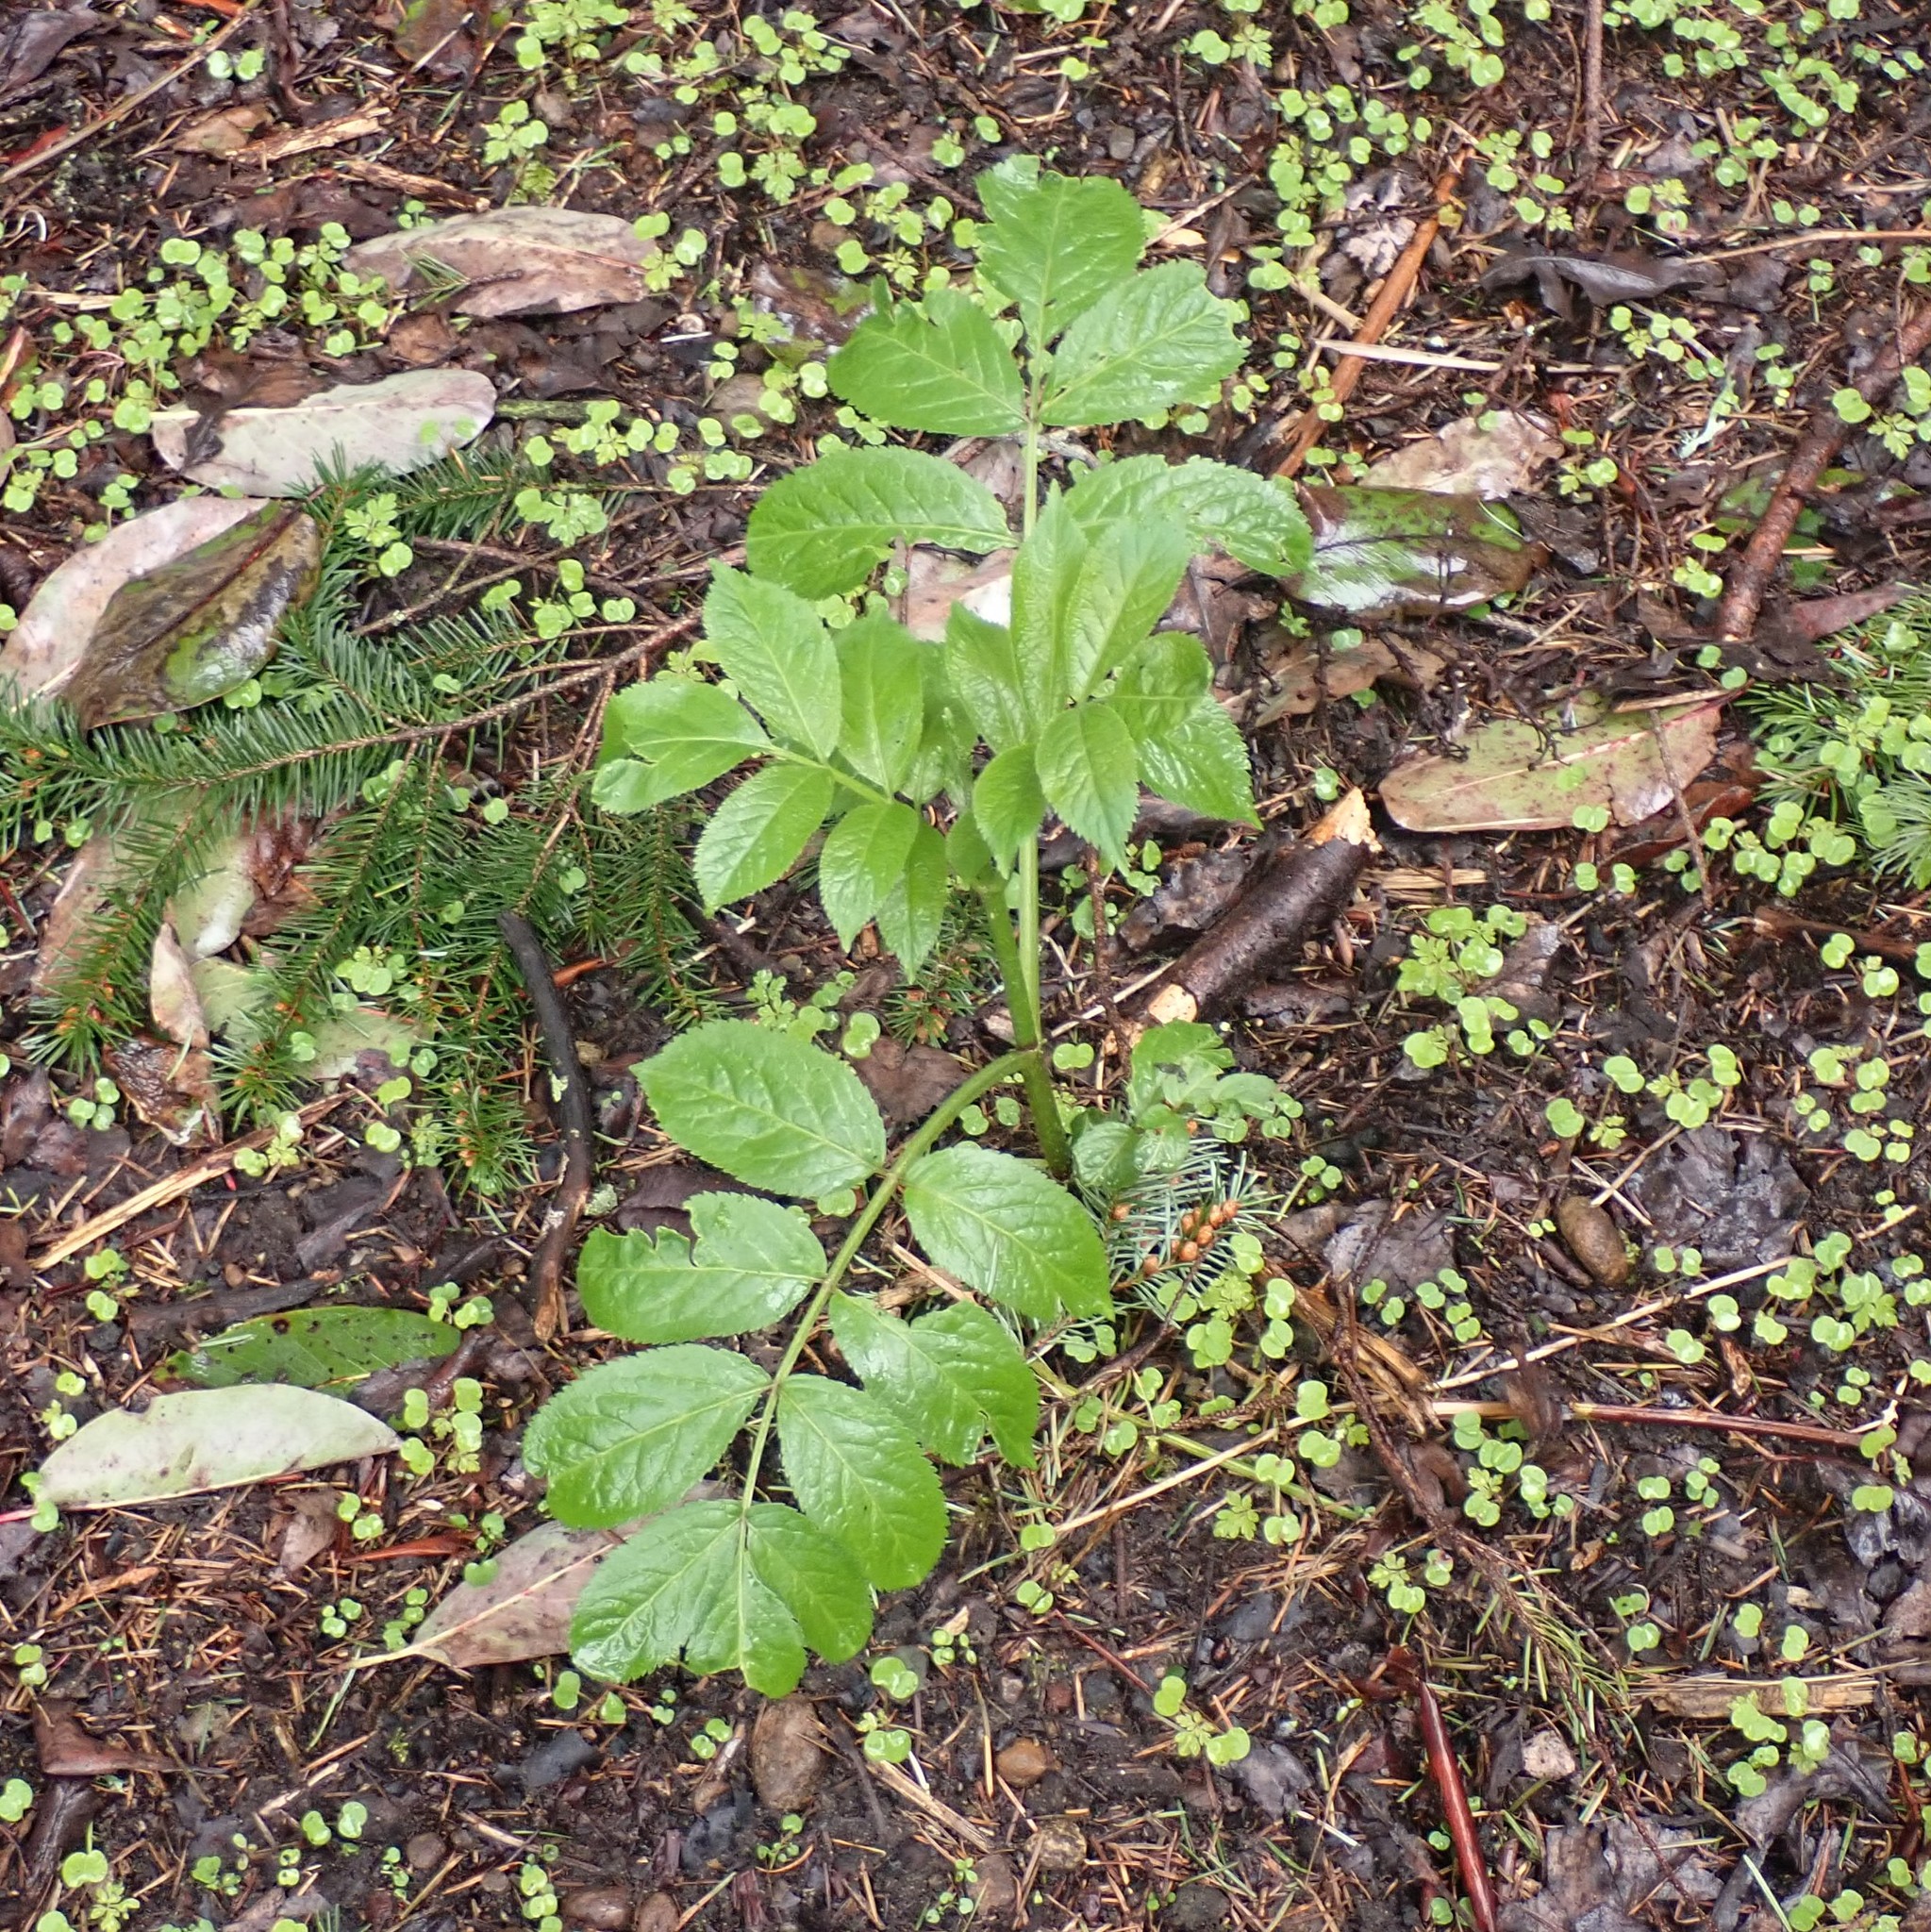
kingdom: Plantae
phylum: Tracheophyta
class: Magnoliopsida
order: Dipsacales
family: Viburnaceae
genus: Sambucus
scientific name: Sambucus racemosa
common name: Red-berried elder
